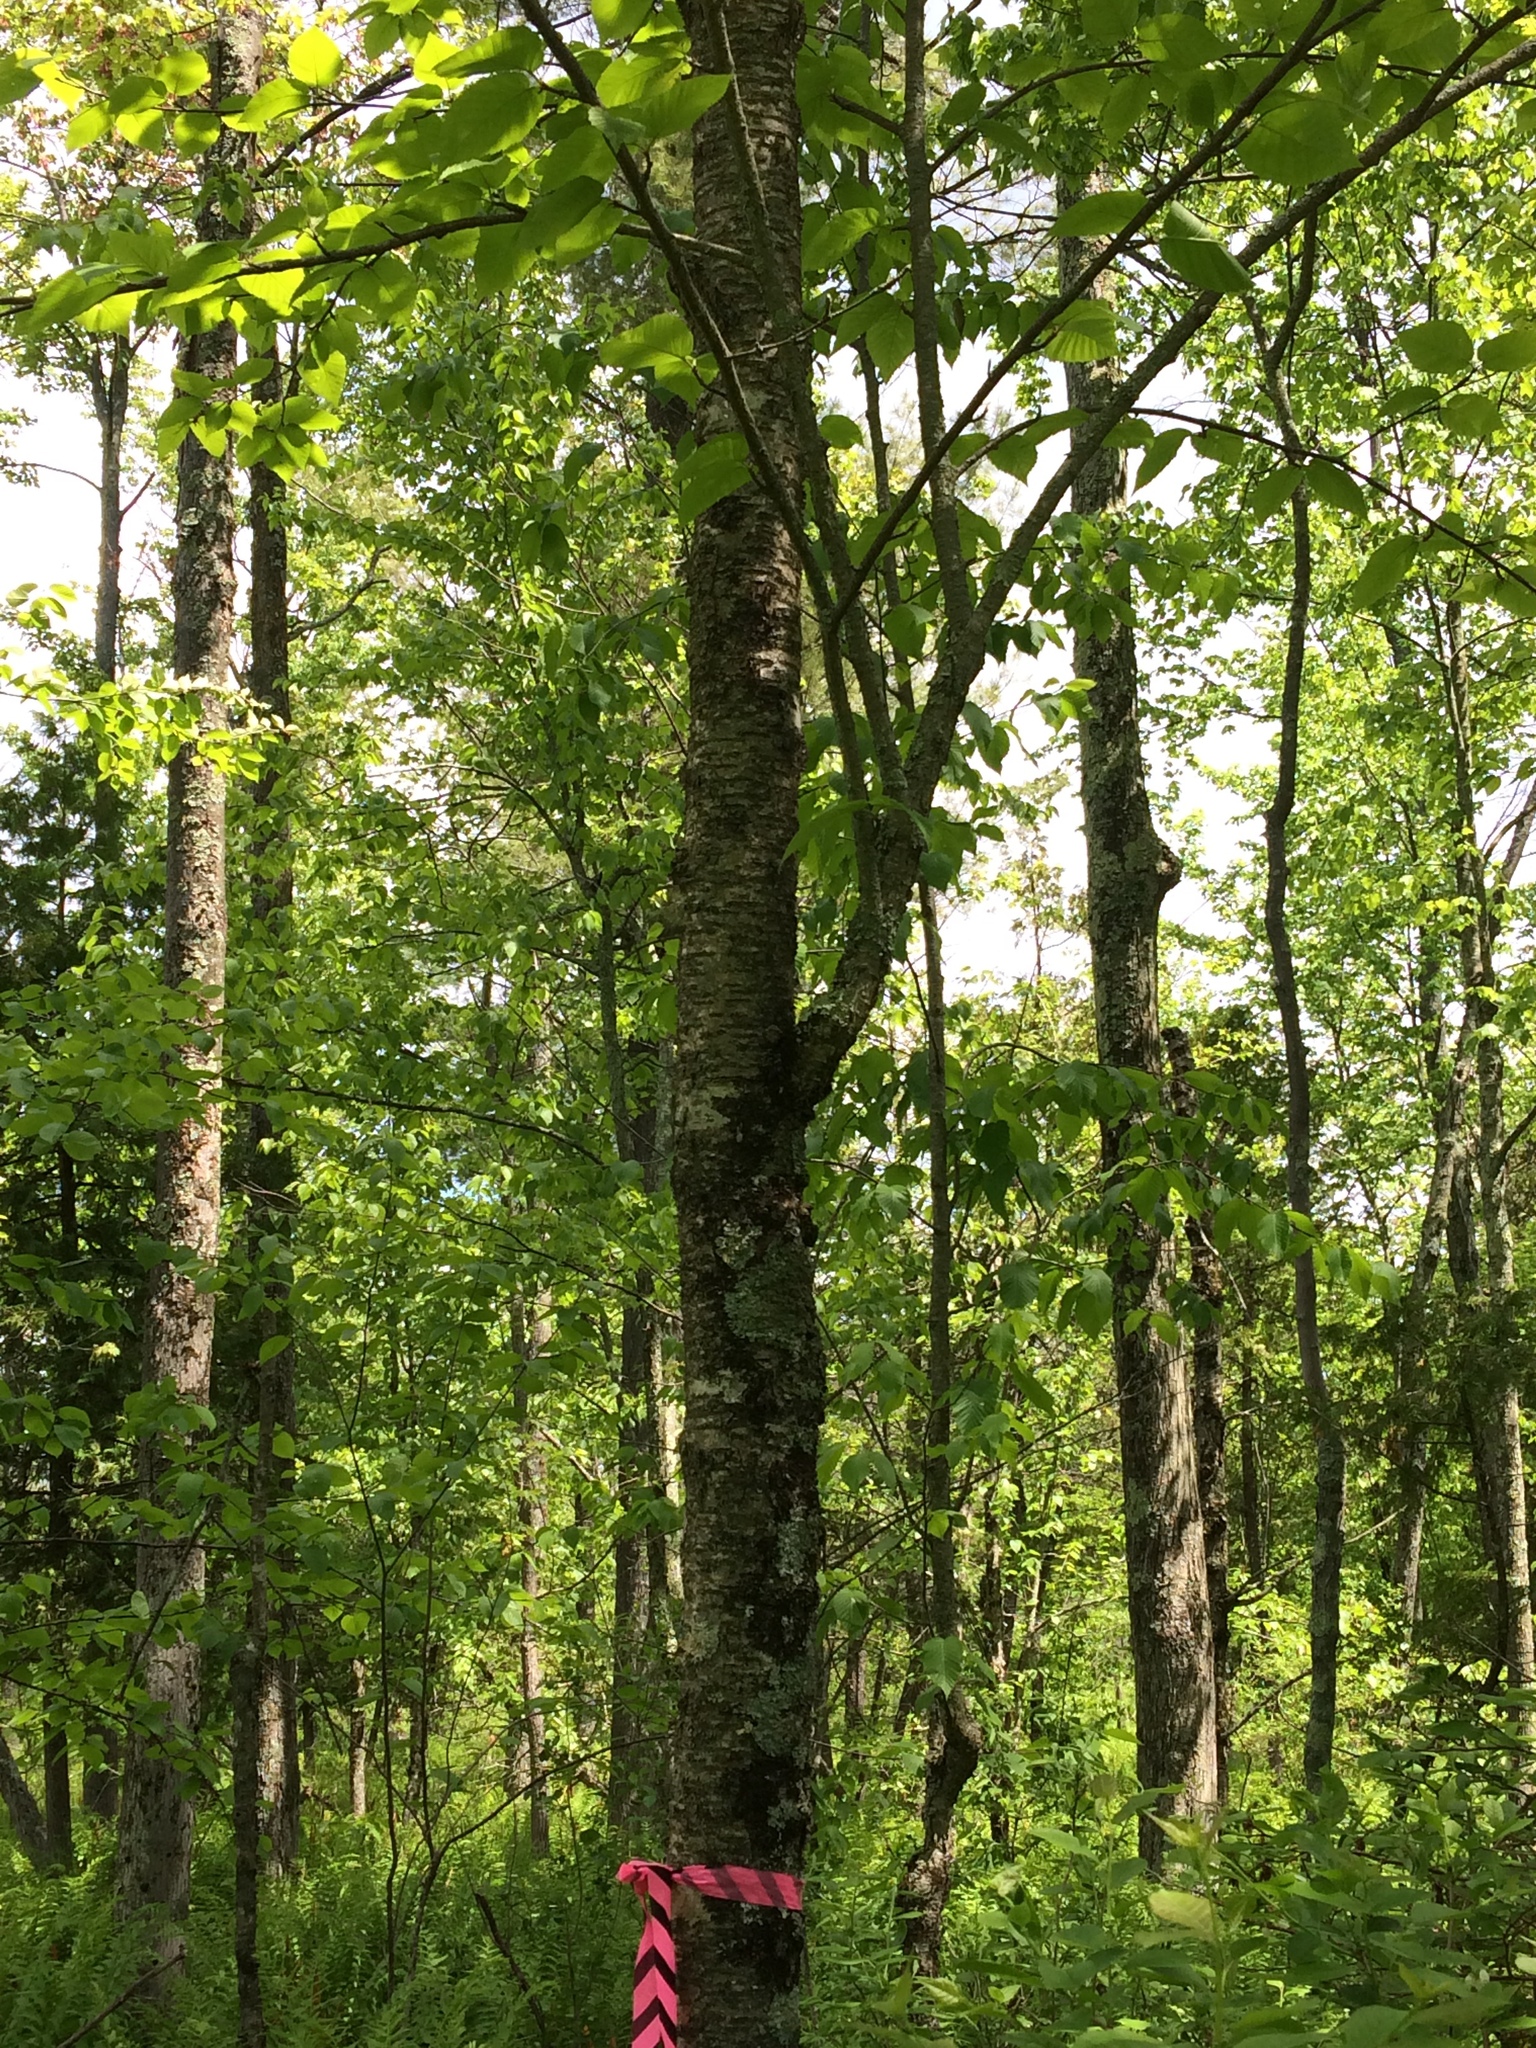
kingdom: Plantae
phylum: Tracheophyta
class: Magnoliopsida
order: Fagales
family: Betulaceae
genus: Betula
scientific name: Betula alleghaniensis
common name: Yellow birch
